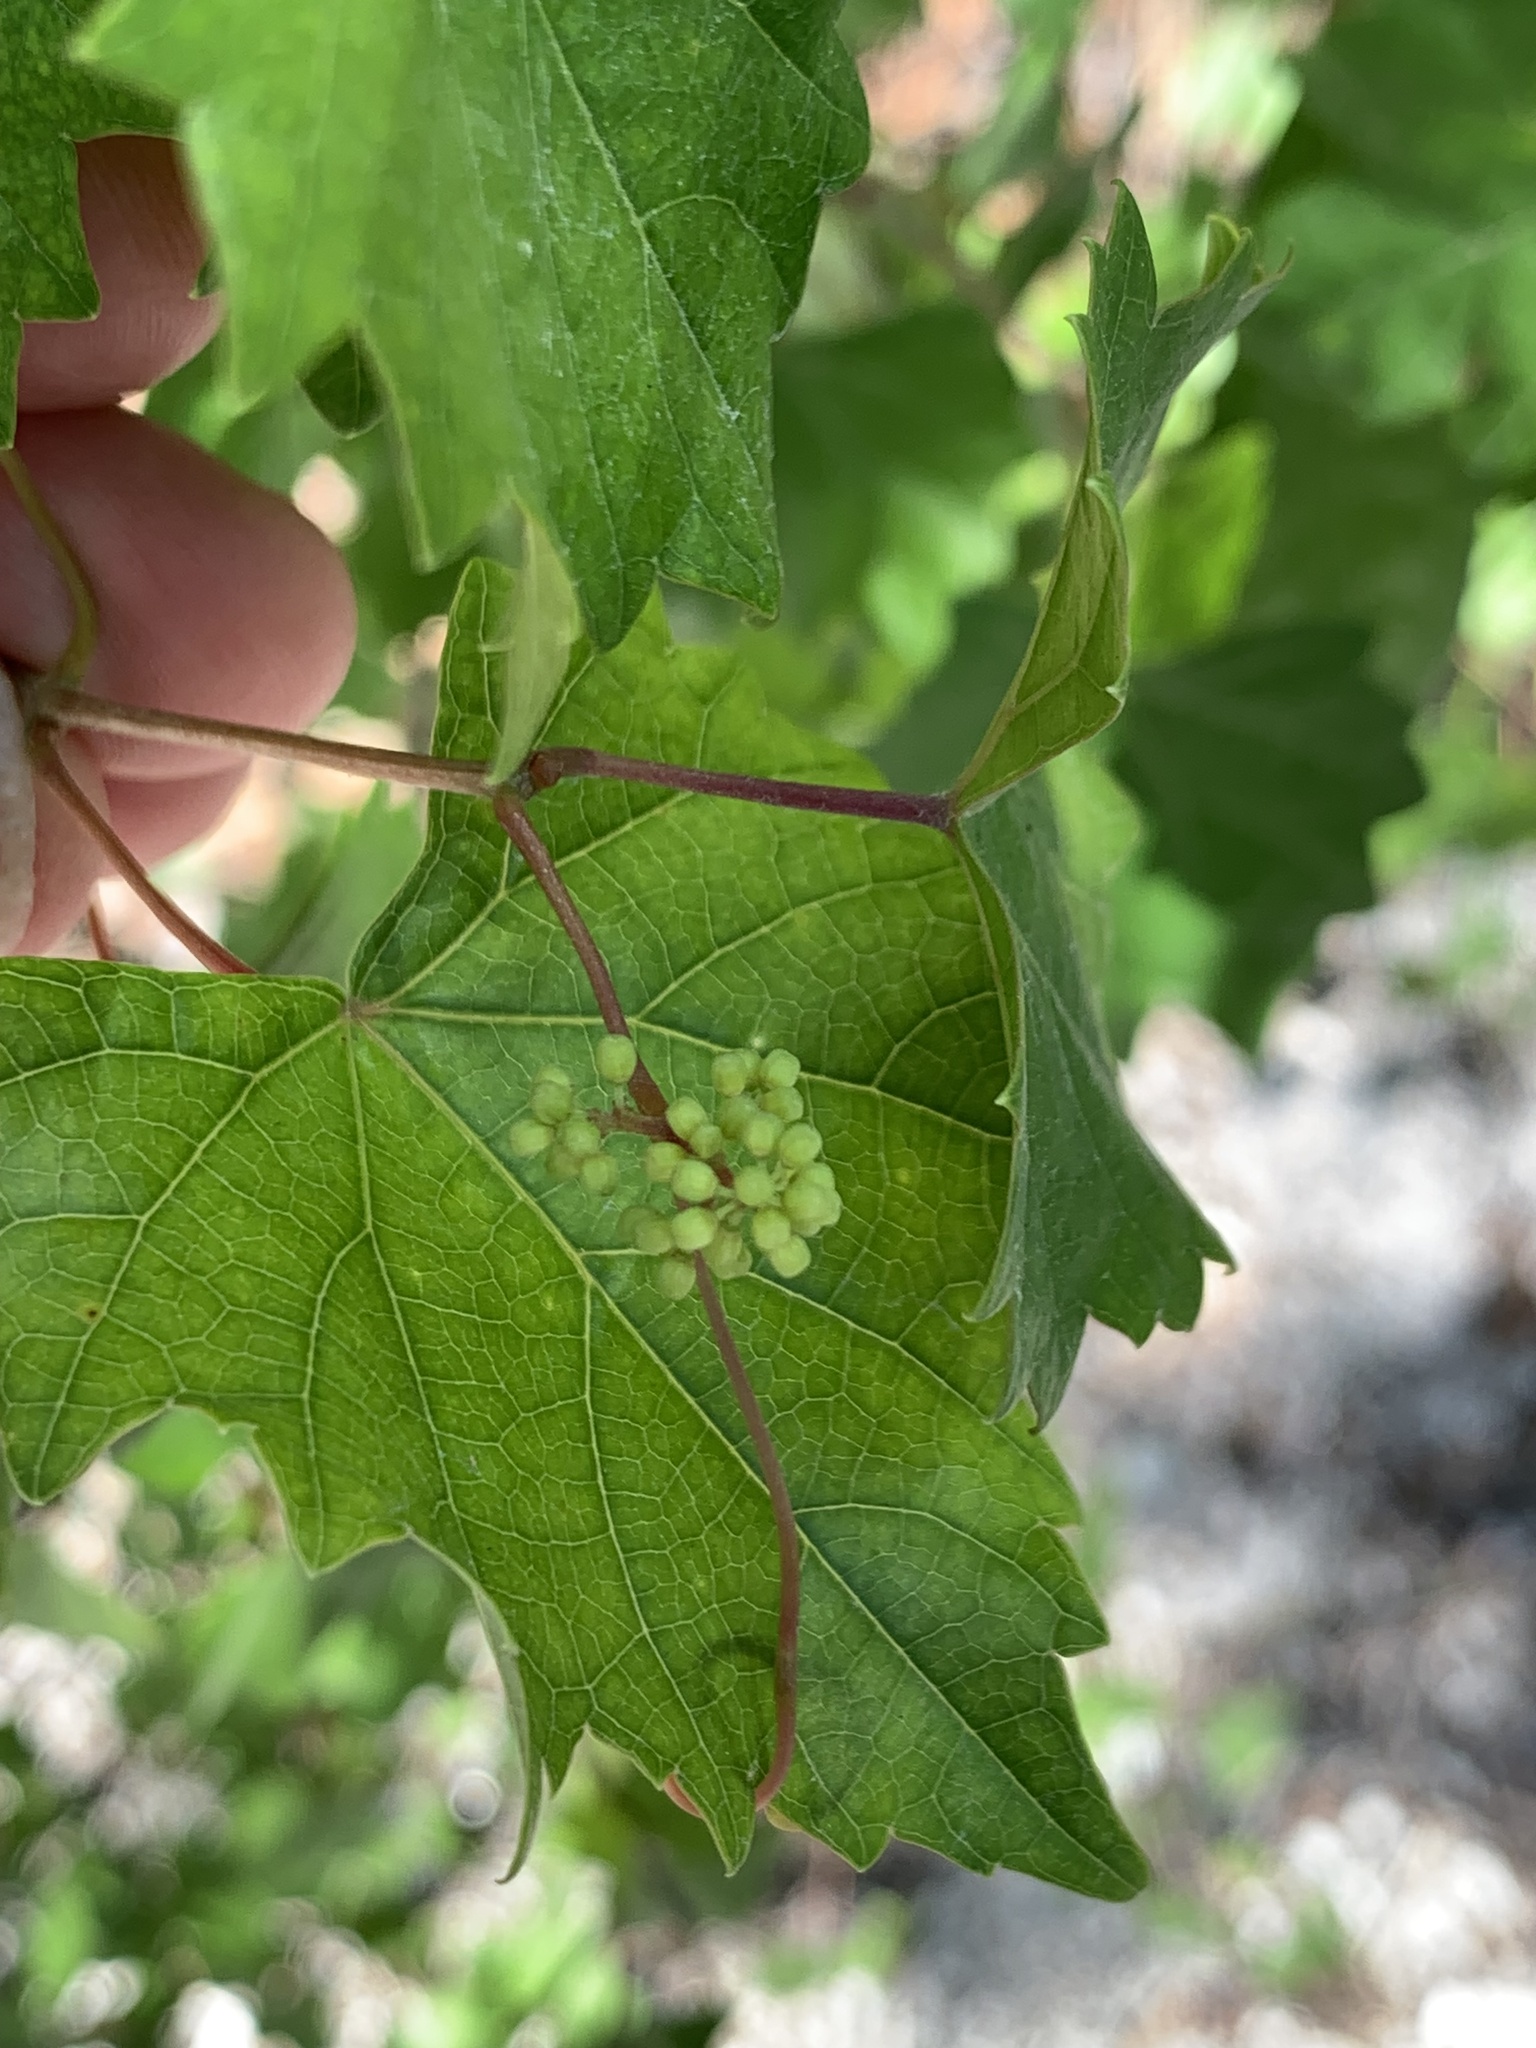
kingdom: Plantae
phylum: Tracheophyta
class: Magnoliopsida
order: Vitales
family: Vitaceae
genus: Vitis
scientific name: Vitis rotundifolia
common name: Muscadine grape
